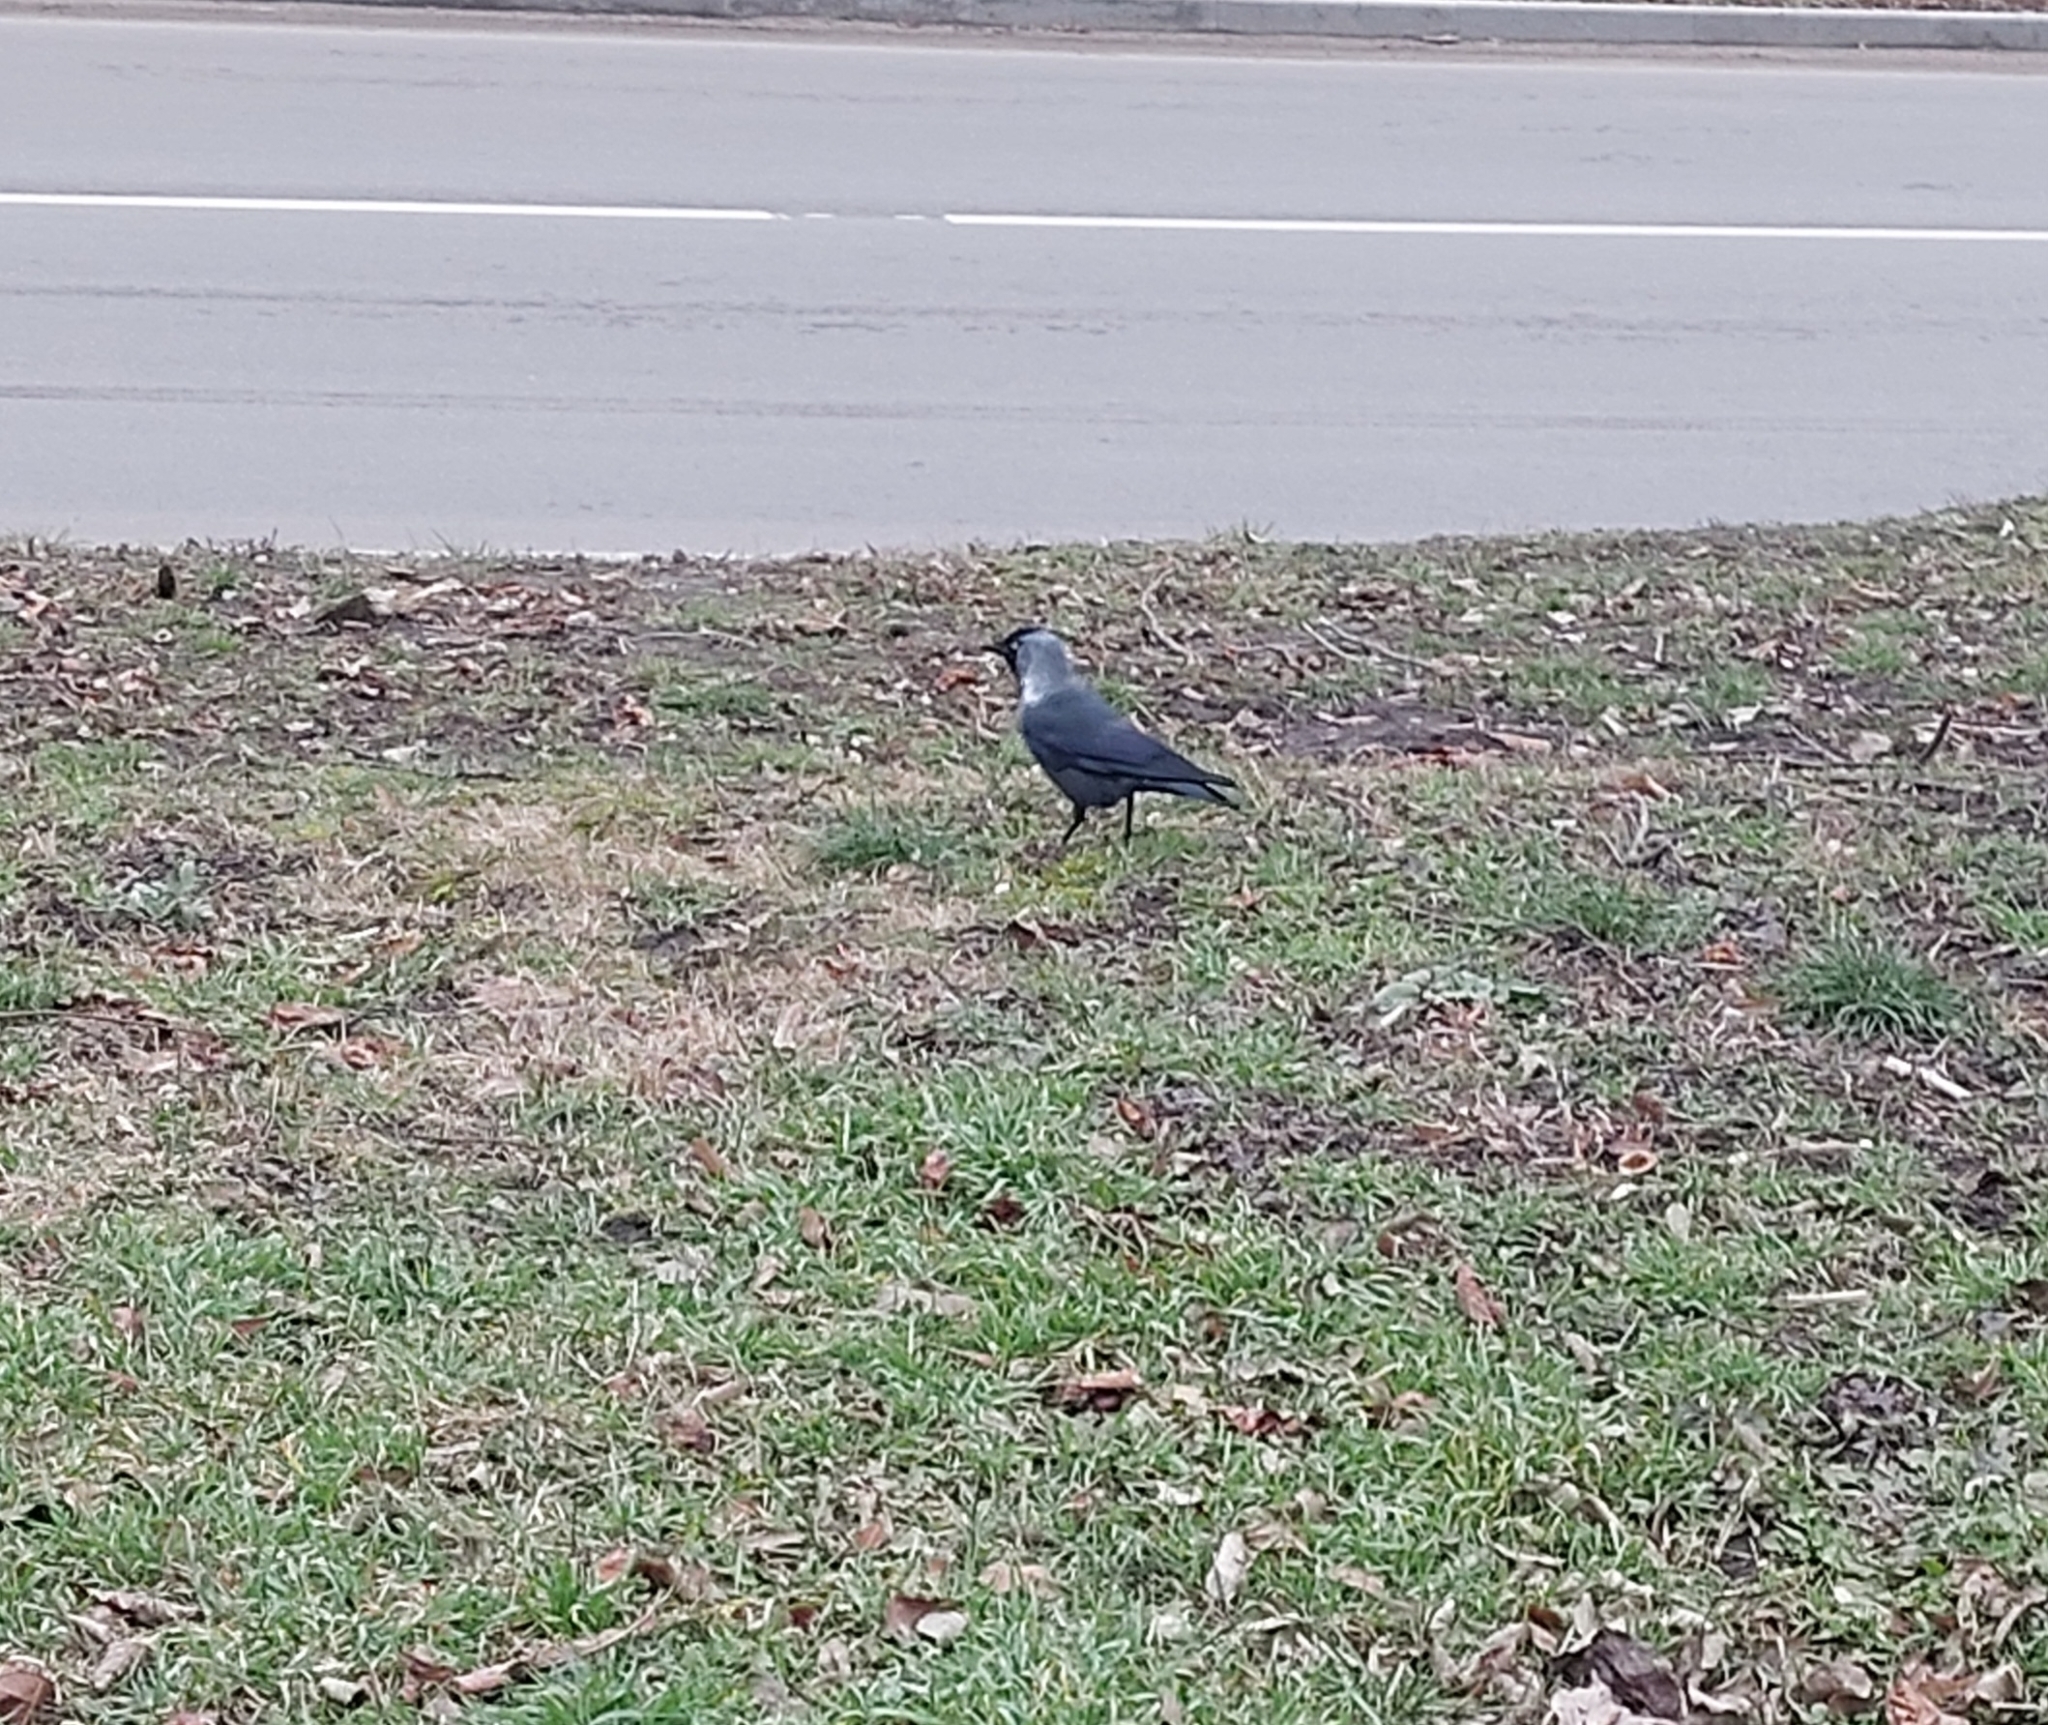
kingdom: Animalia
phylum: Chordata
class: Aves
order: Passeriformes
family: Corvidae
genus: Coloeus
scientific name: Coloeus monedula
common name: Western jackdaw
